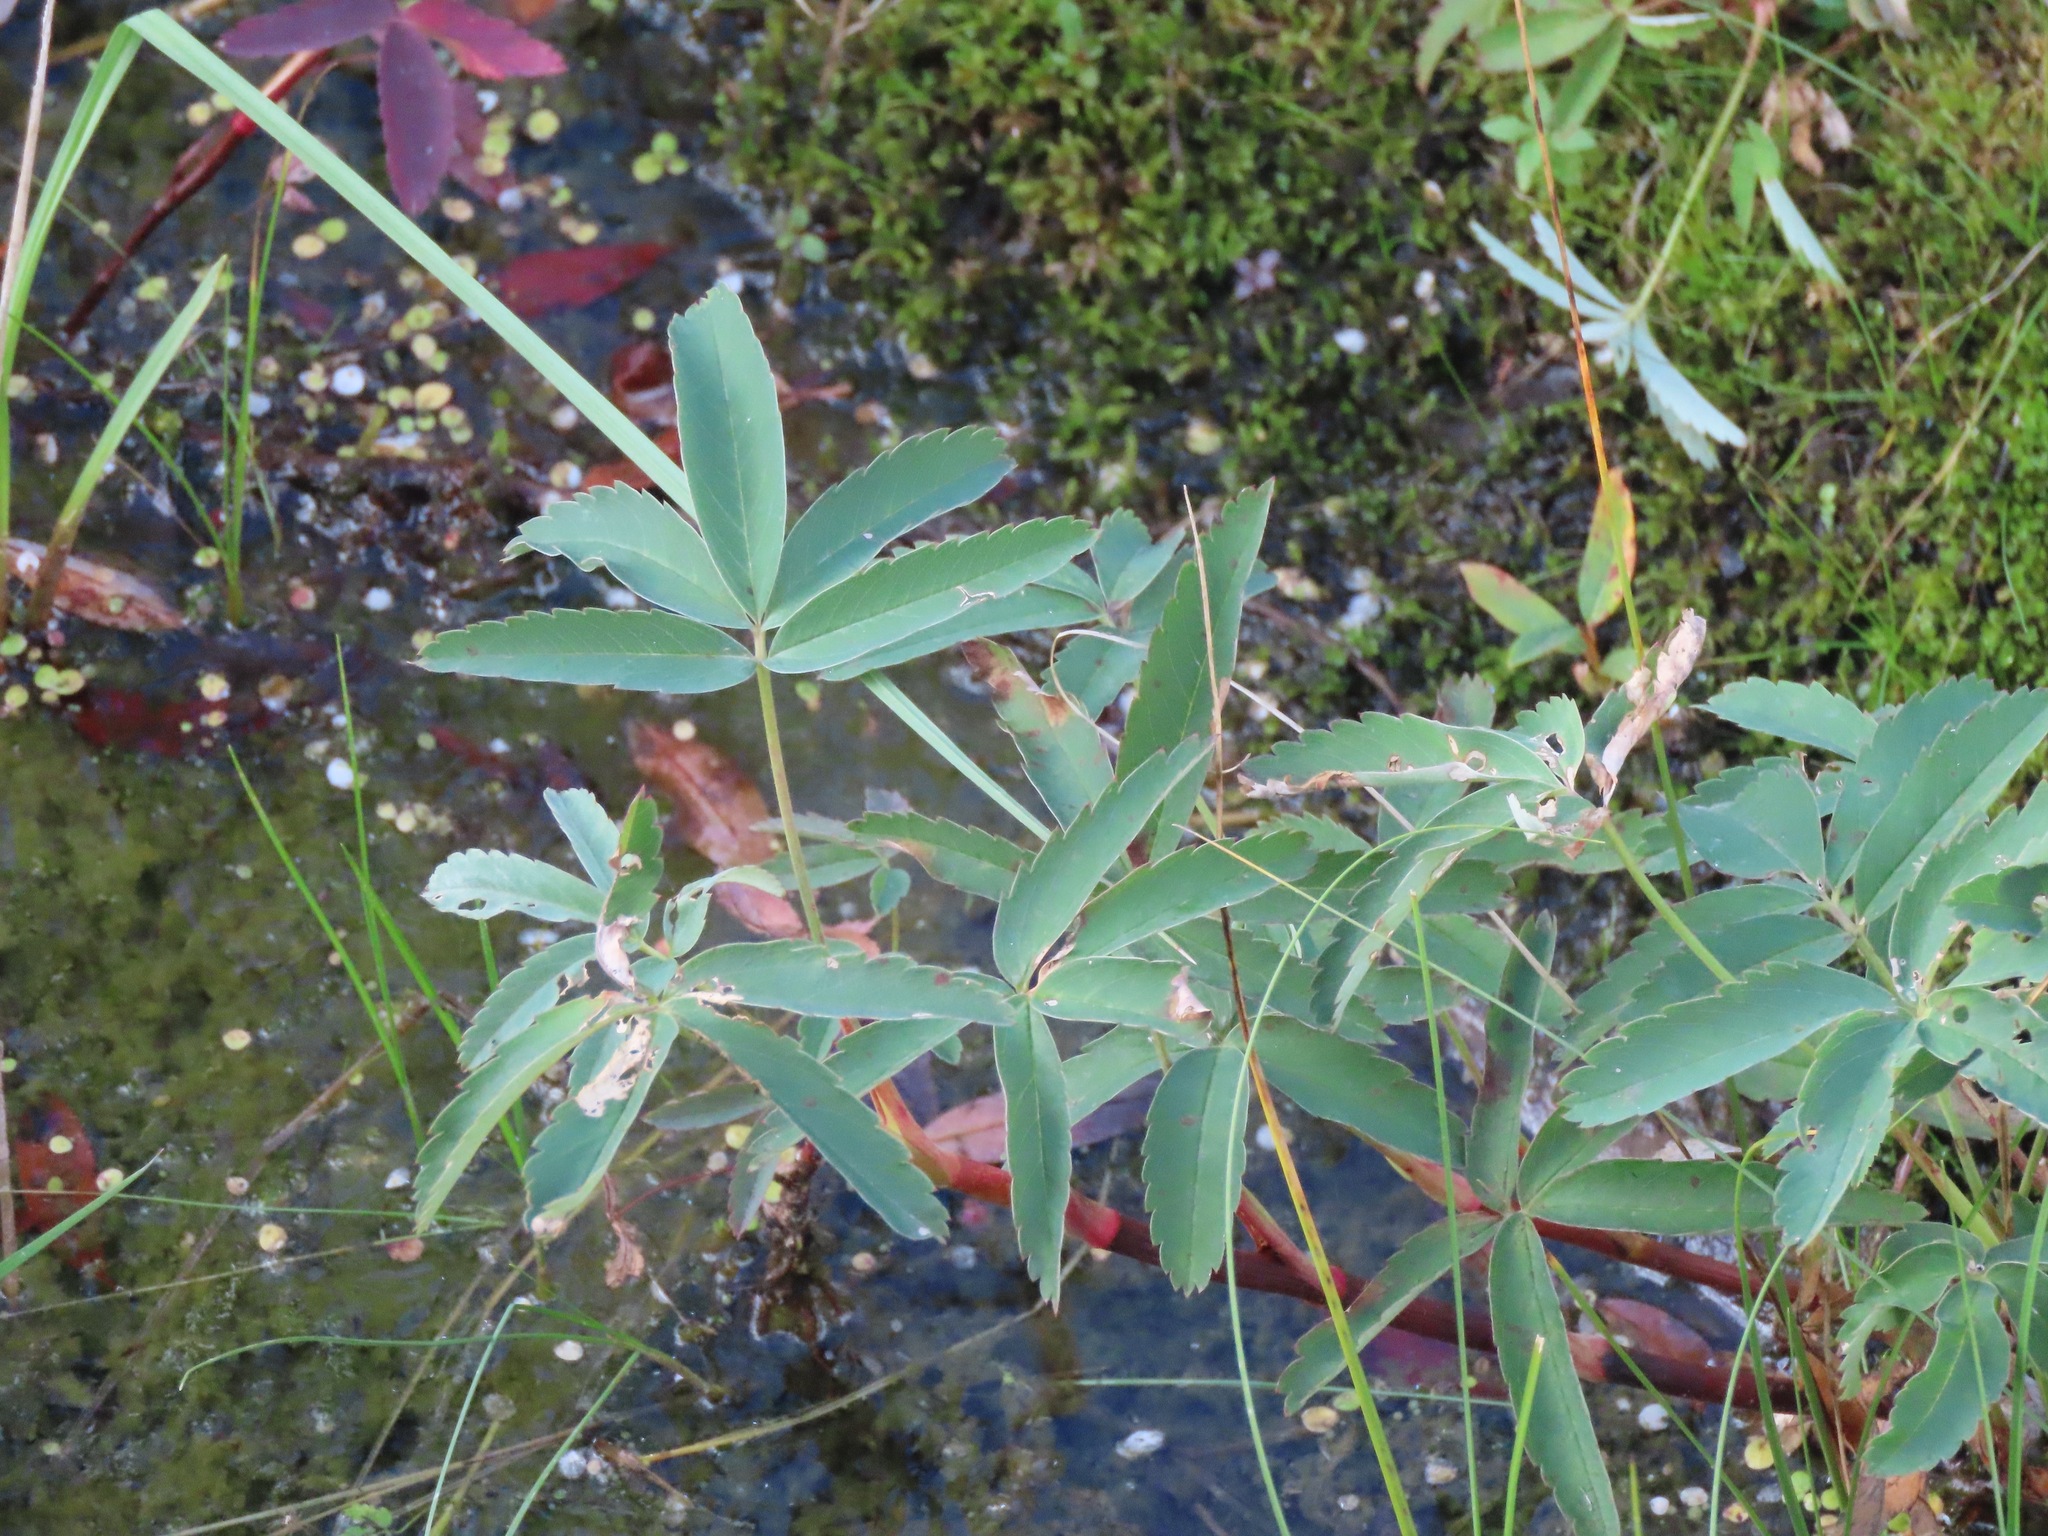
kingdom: Plantae
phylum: Tracheophyta
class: Magnoliopsida
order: Rosales
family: Rosaceae
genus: Comarum
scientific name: Comarum palustre
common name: Marsh cinquefoil
